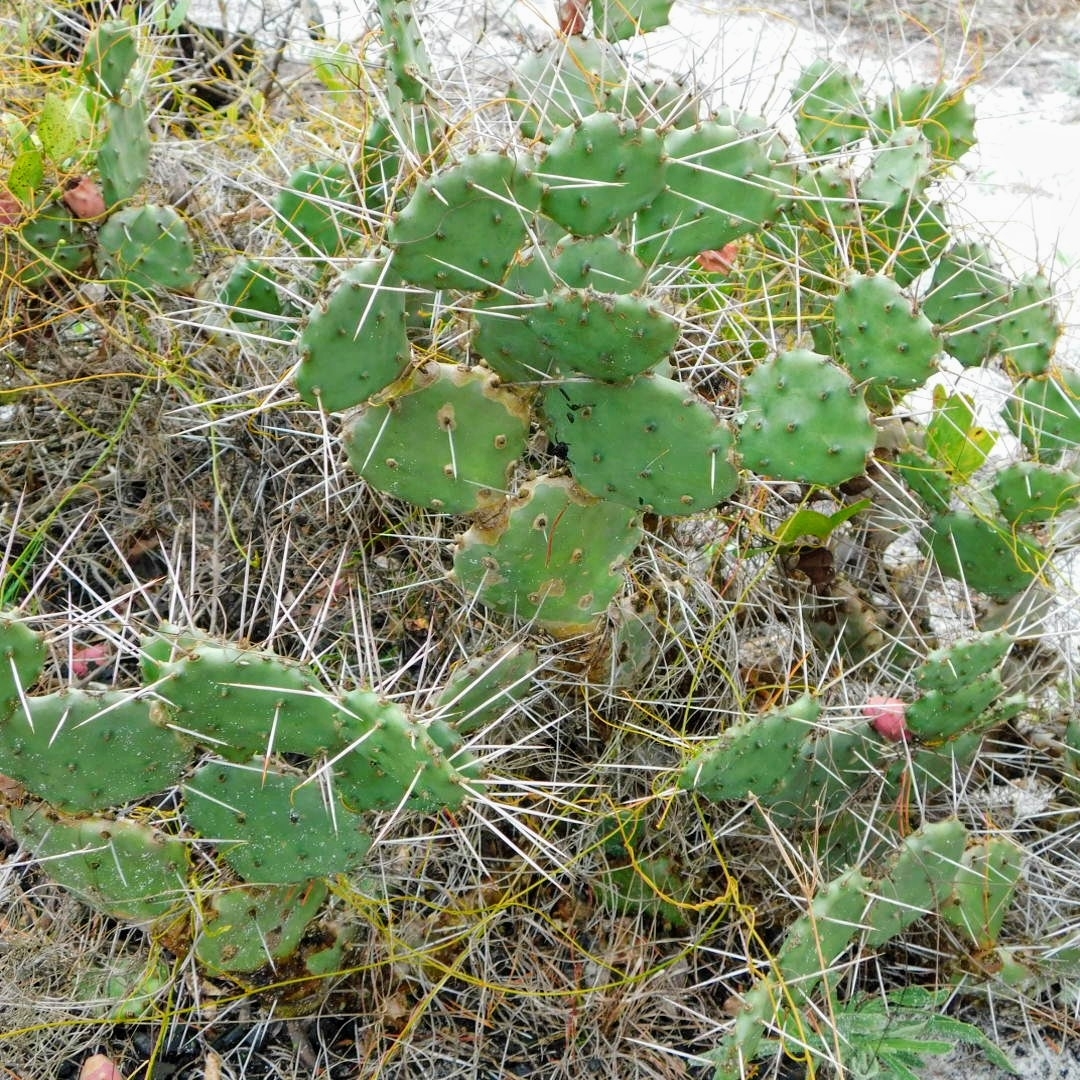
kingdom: Plantae
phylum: Tracheophyta
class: Magnoliopsida
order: Caryophyllales
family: Cactaceae
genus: Opuntia
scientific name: Opuntia austrina
